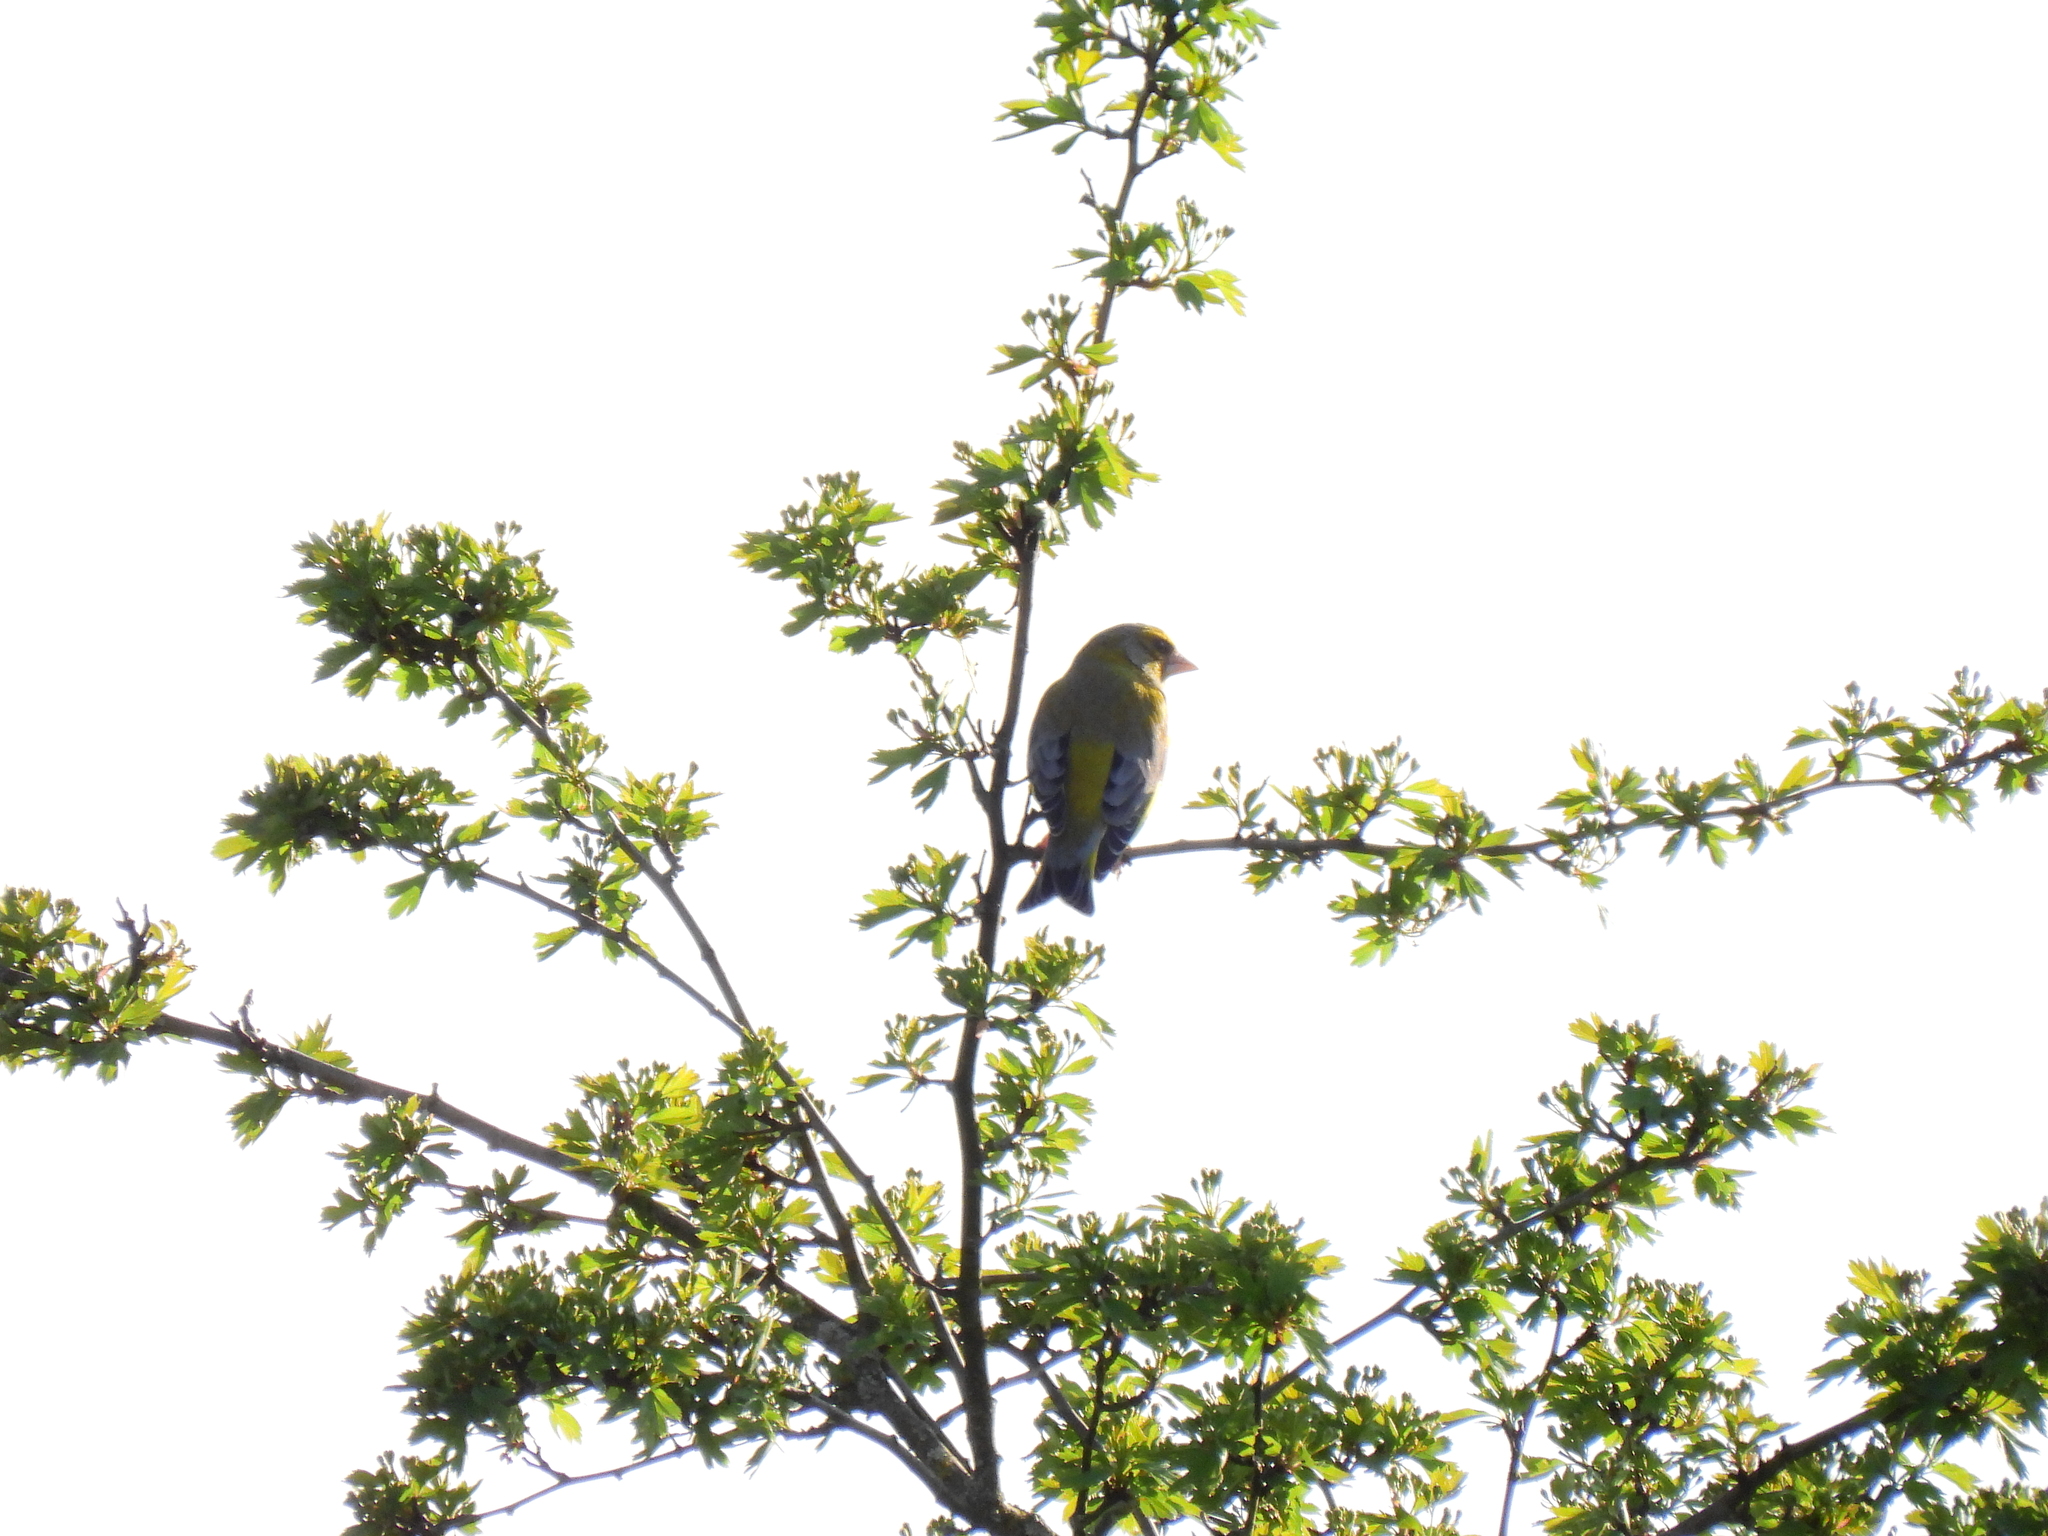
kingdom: Plantae
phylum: Tracheophyta
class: Liliopsida
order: Poales
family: Poaceae
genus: Chloris
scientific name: Chloris chloris
